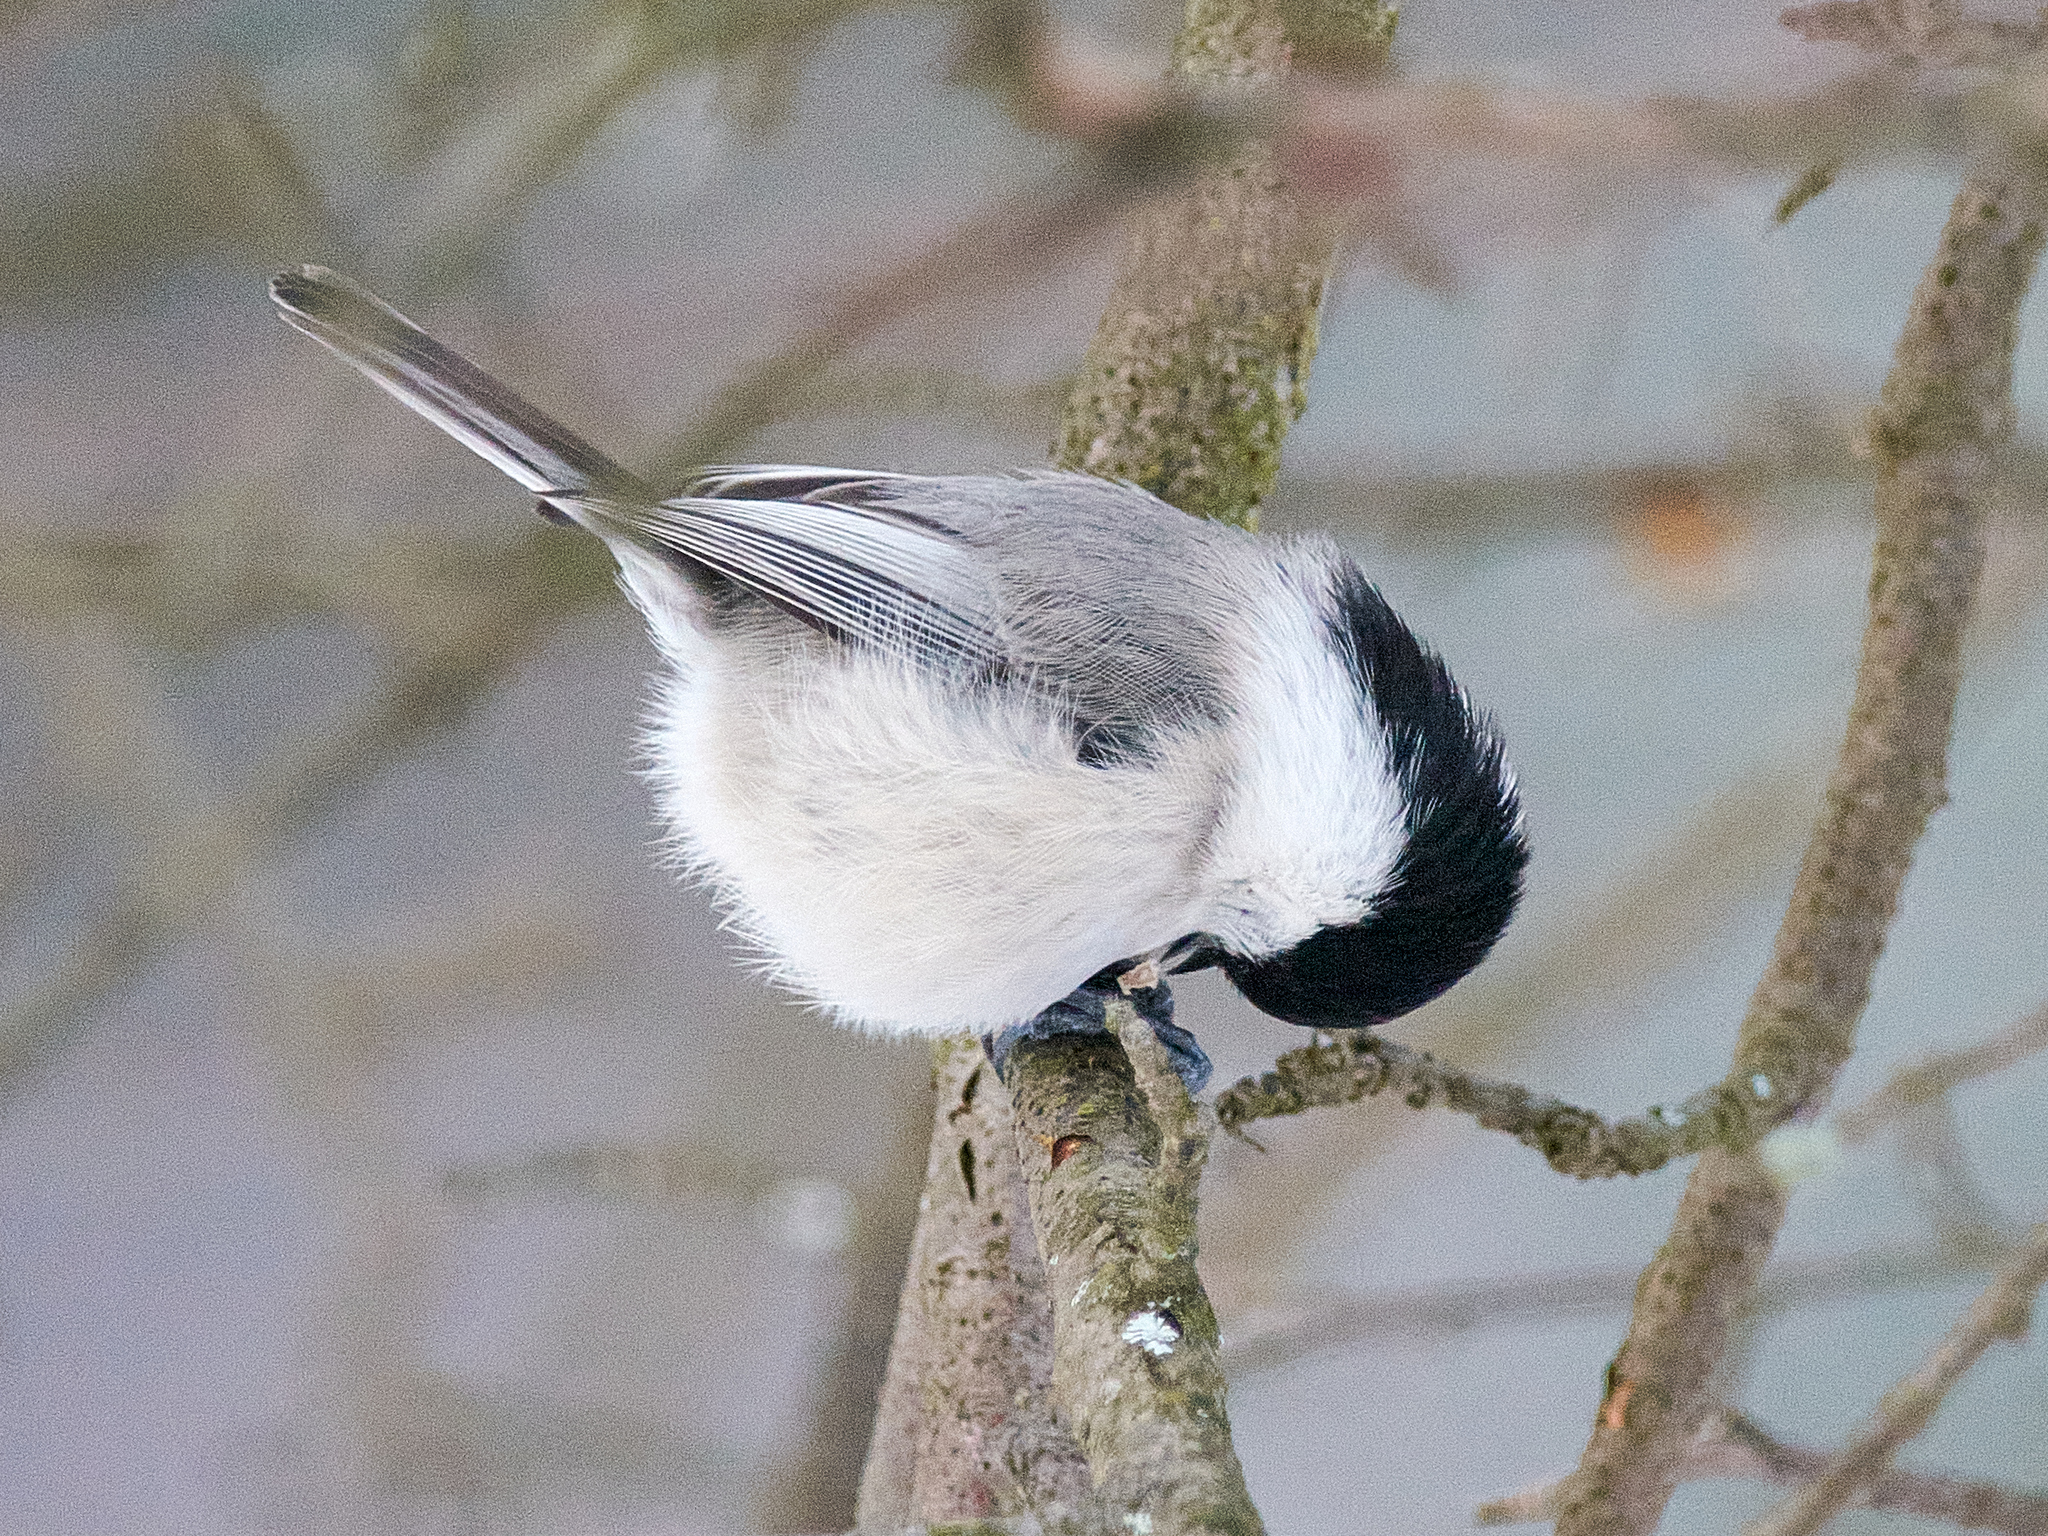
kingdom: Animalia
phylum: Chordata
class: Aves
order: Passeriformes
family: Paridae
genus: Poecile
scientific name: Poecile montanus
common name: Willow tit
